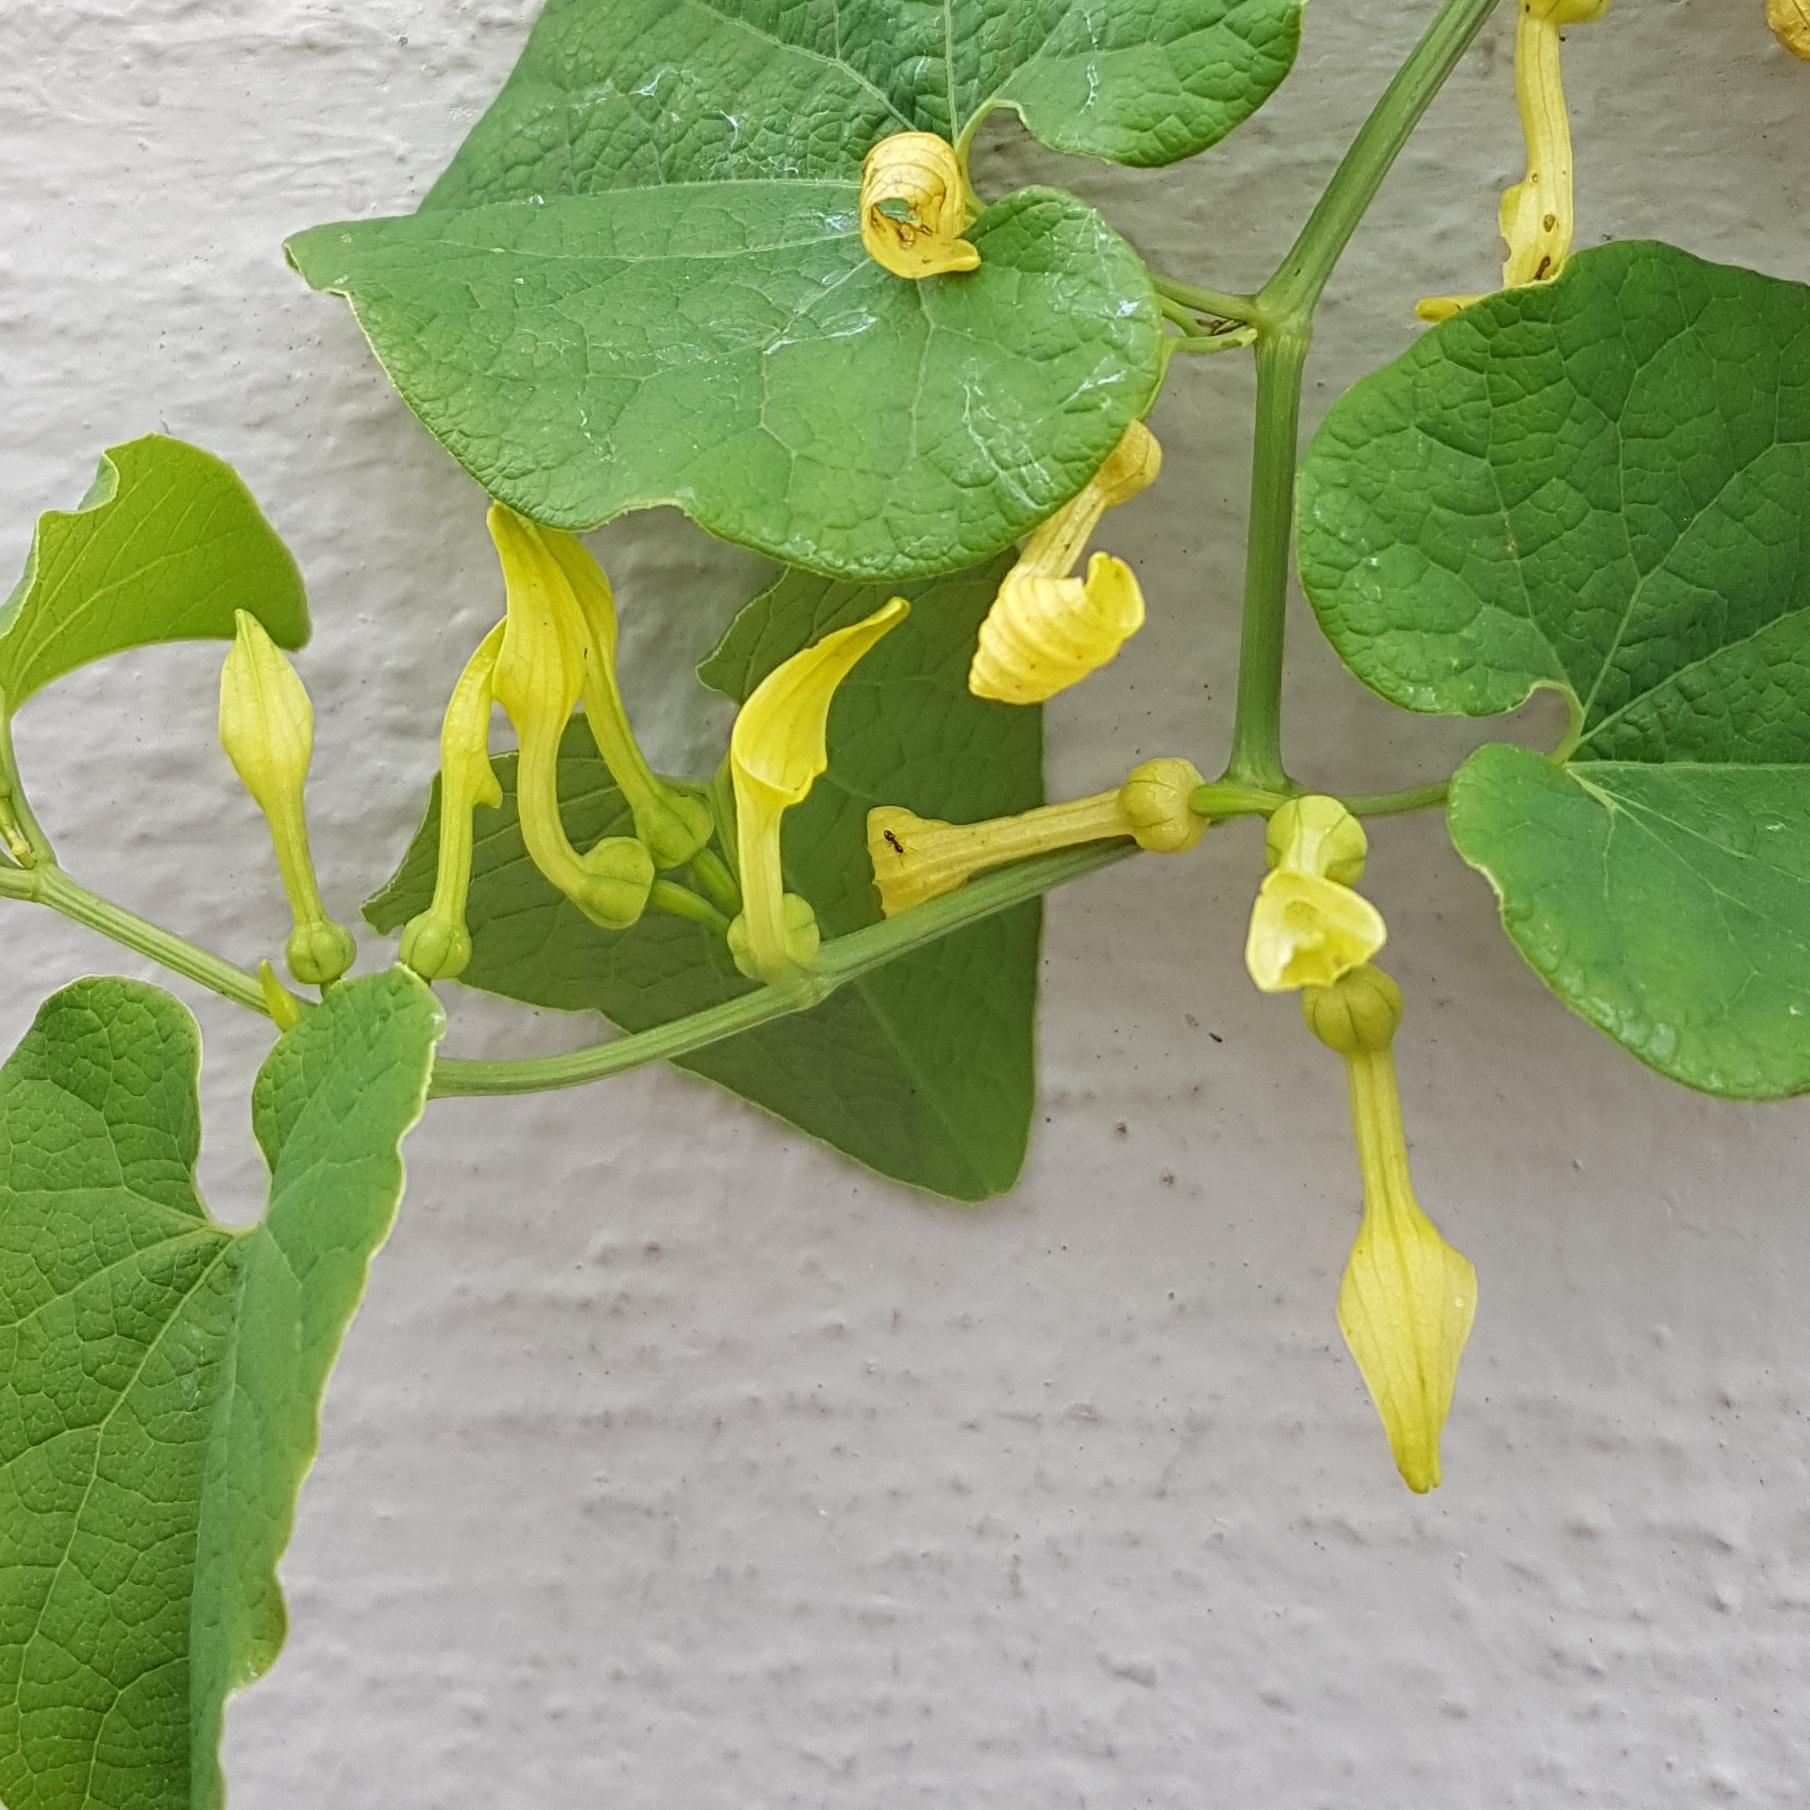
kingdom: Plantae
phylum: Tracheophyta
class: Magnoliopsida
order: Piperales
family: Aristolochiaceae
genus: Aristolochia
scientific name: Aristolochia clematitis
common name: Birthwort
